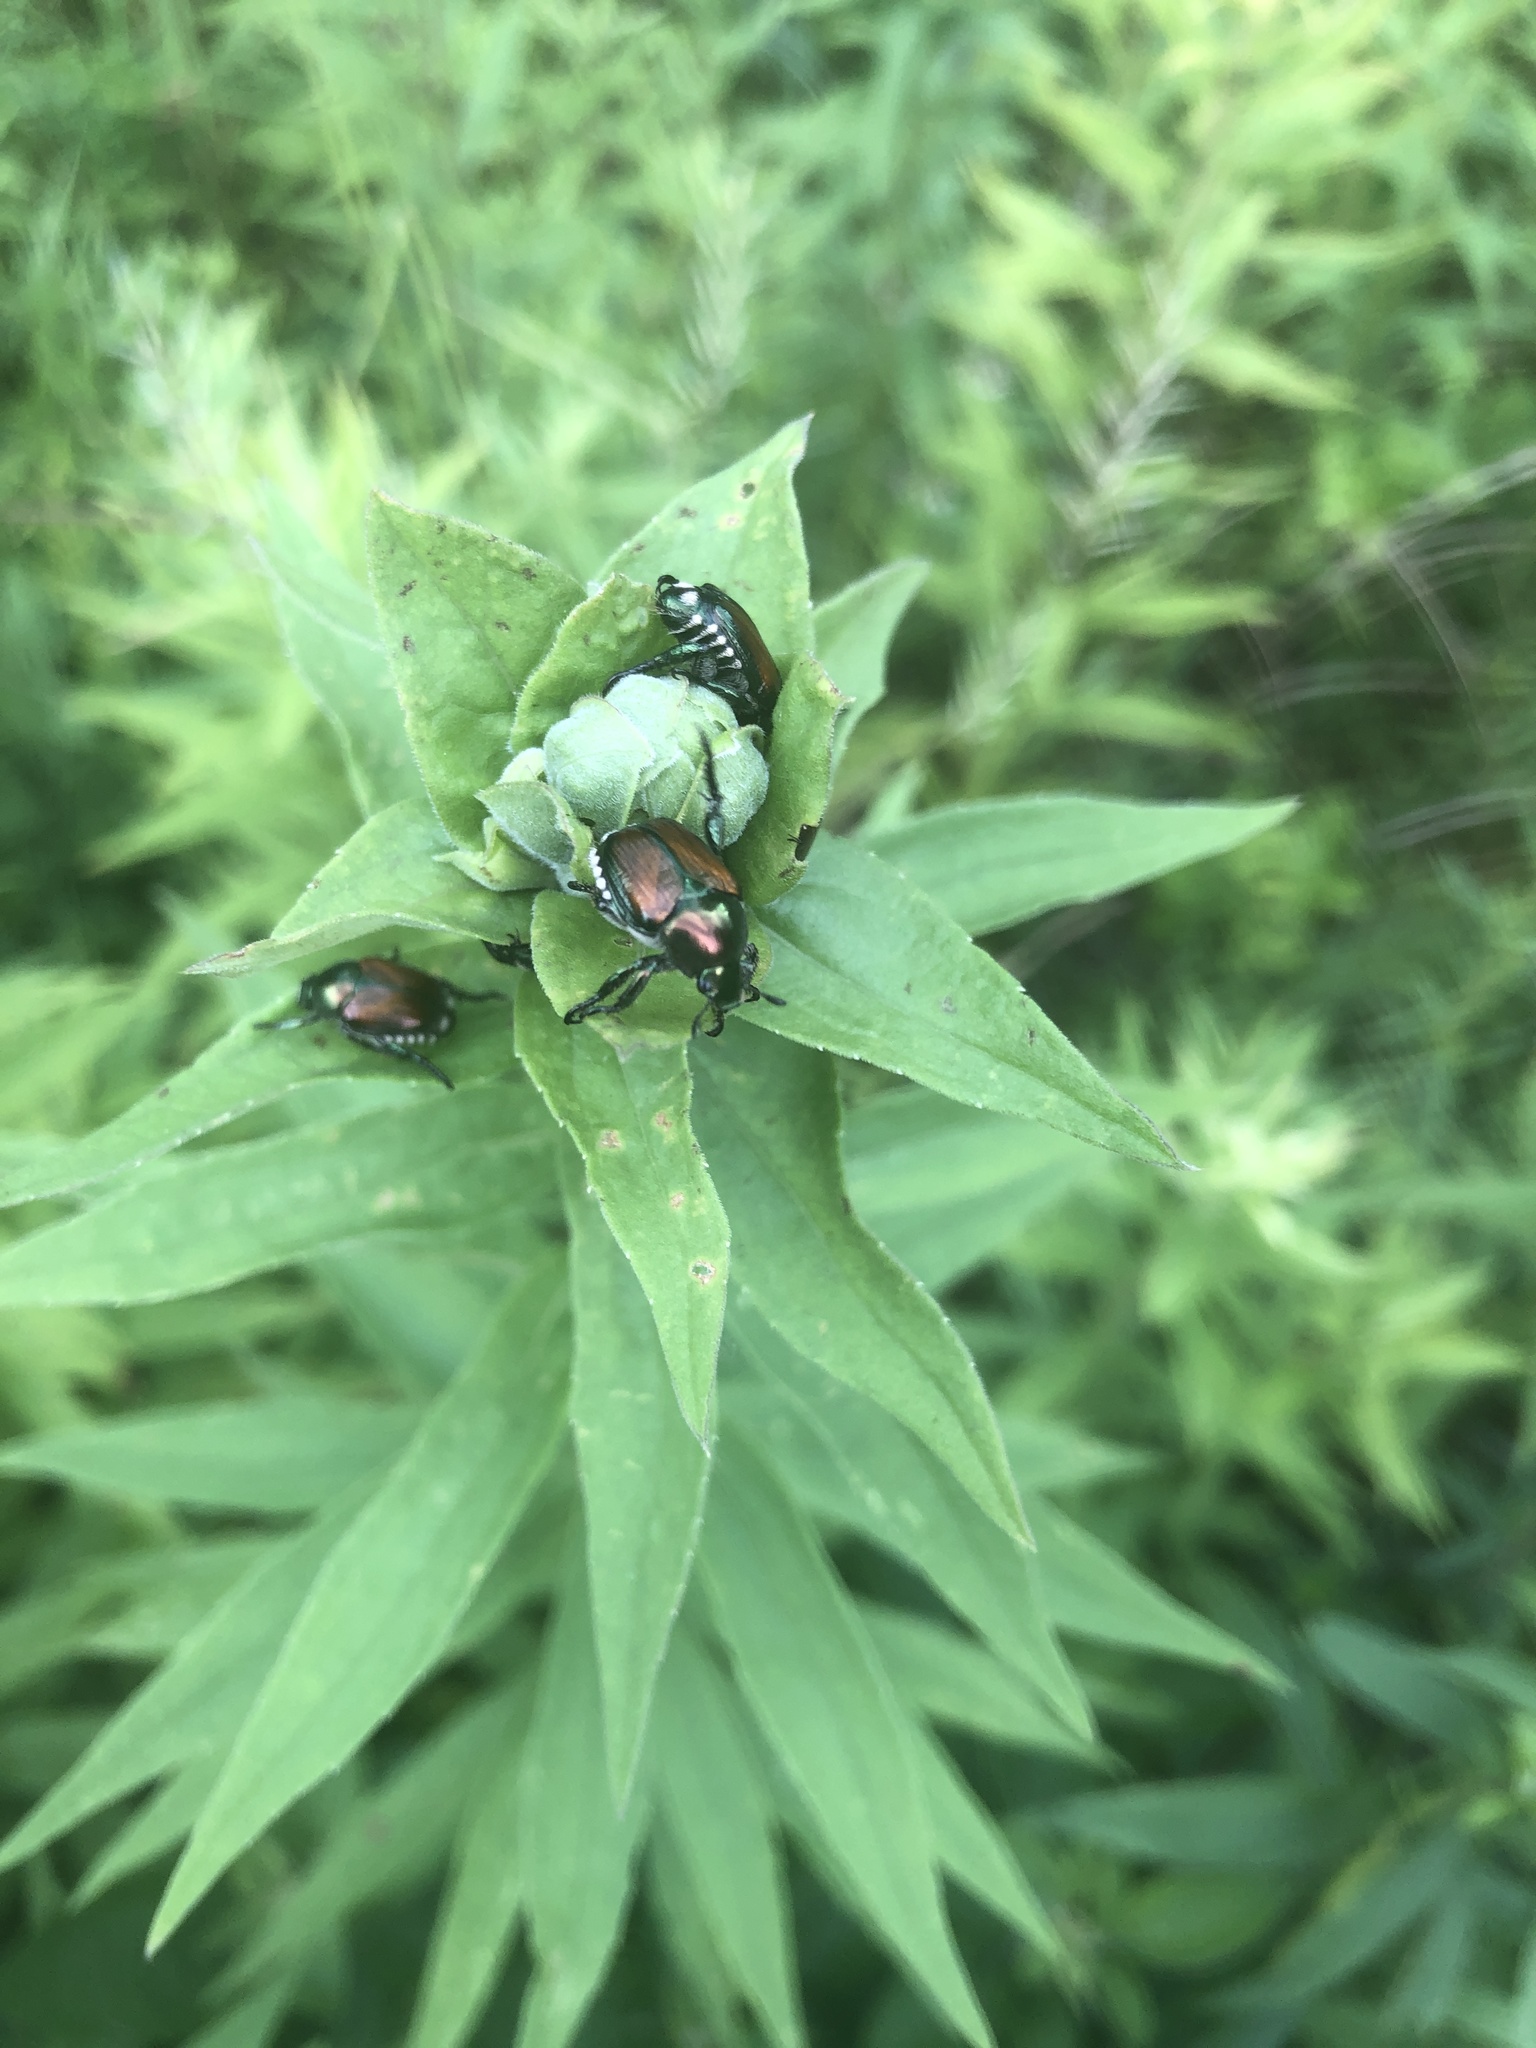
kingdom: Animalia
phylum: Arthropoda
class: Insecta
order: Coleoptera
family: Scarabaeidae
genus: Popillia
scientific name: Popillia japonica
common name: Japanese beetle
